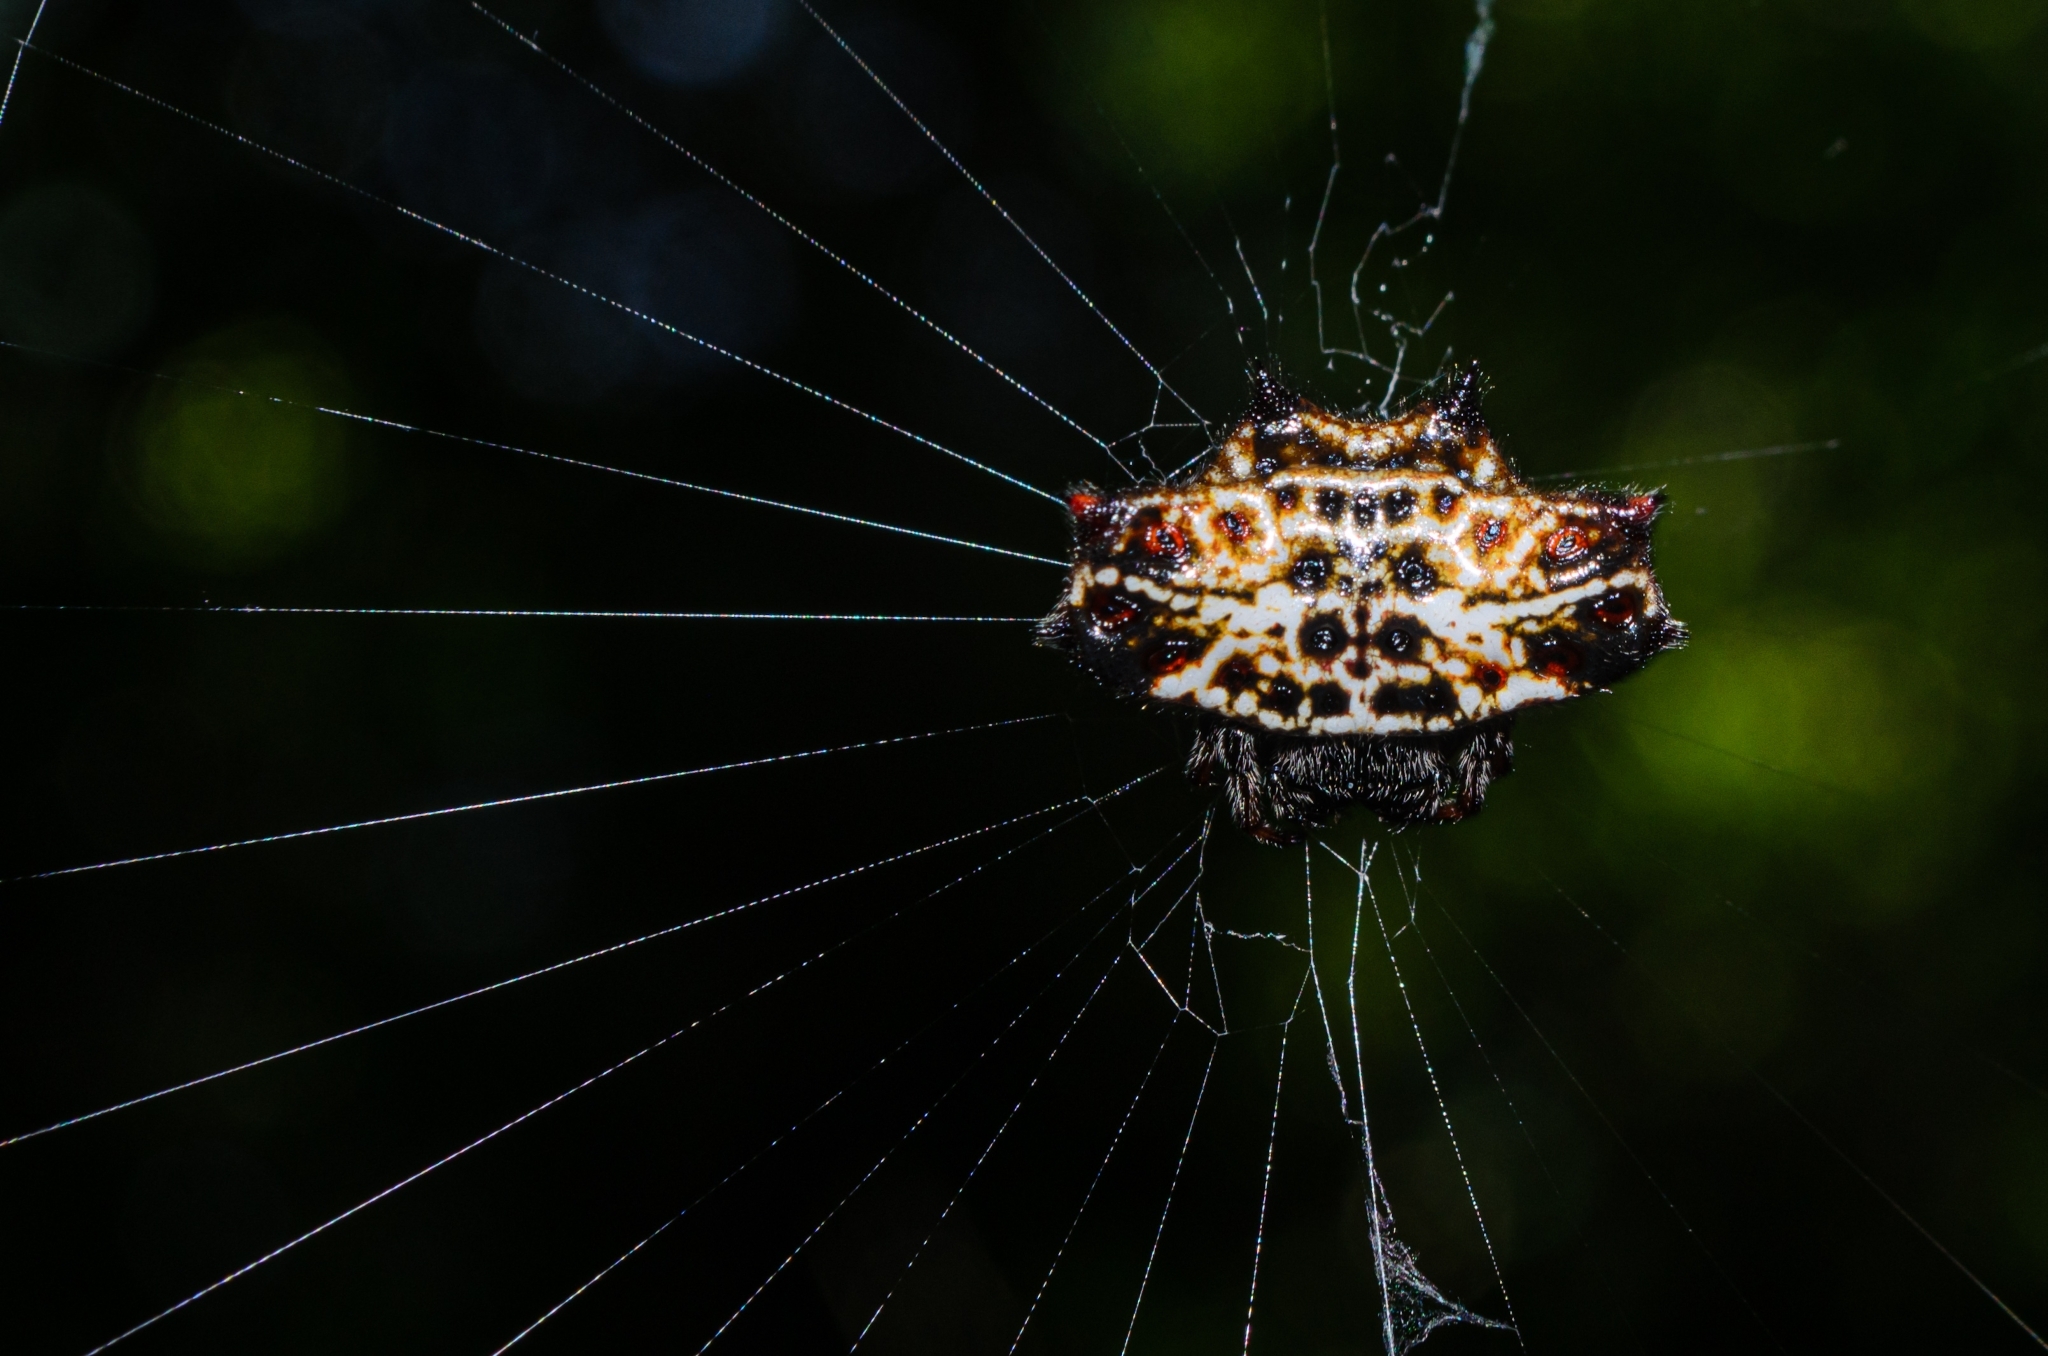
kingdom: Animalia
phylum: Arthropoda
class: Arachnida
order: Araneae
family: Araneidae
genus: Gasteracantha
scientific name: Gasteracantha cancriformis
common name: Orb weavers
